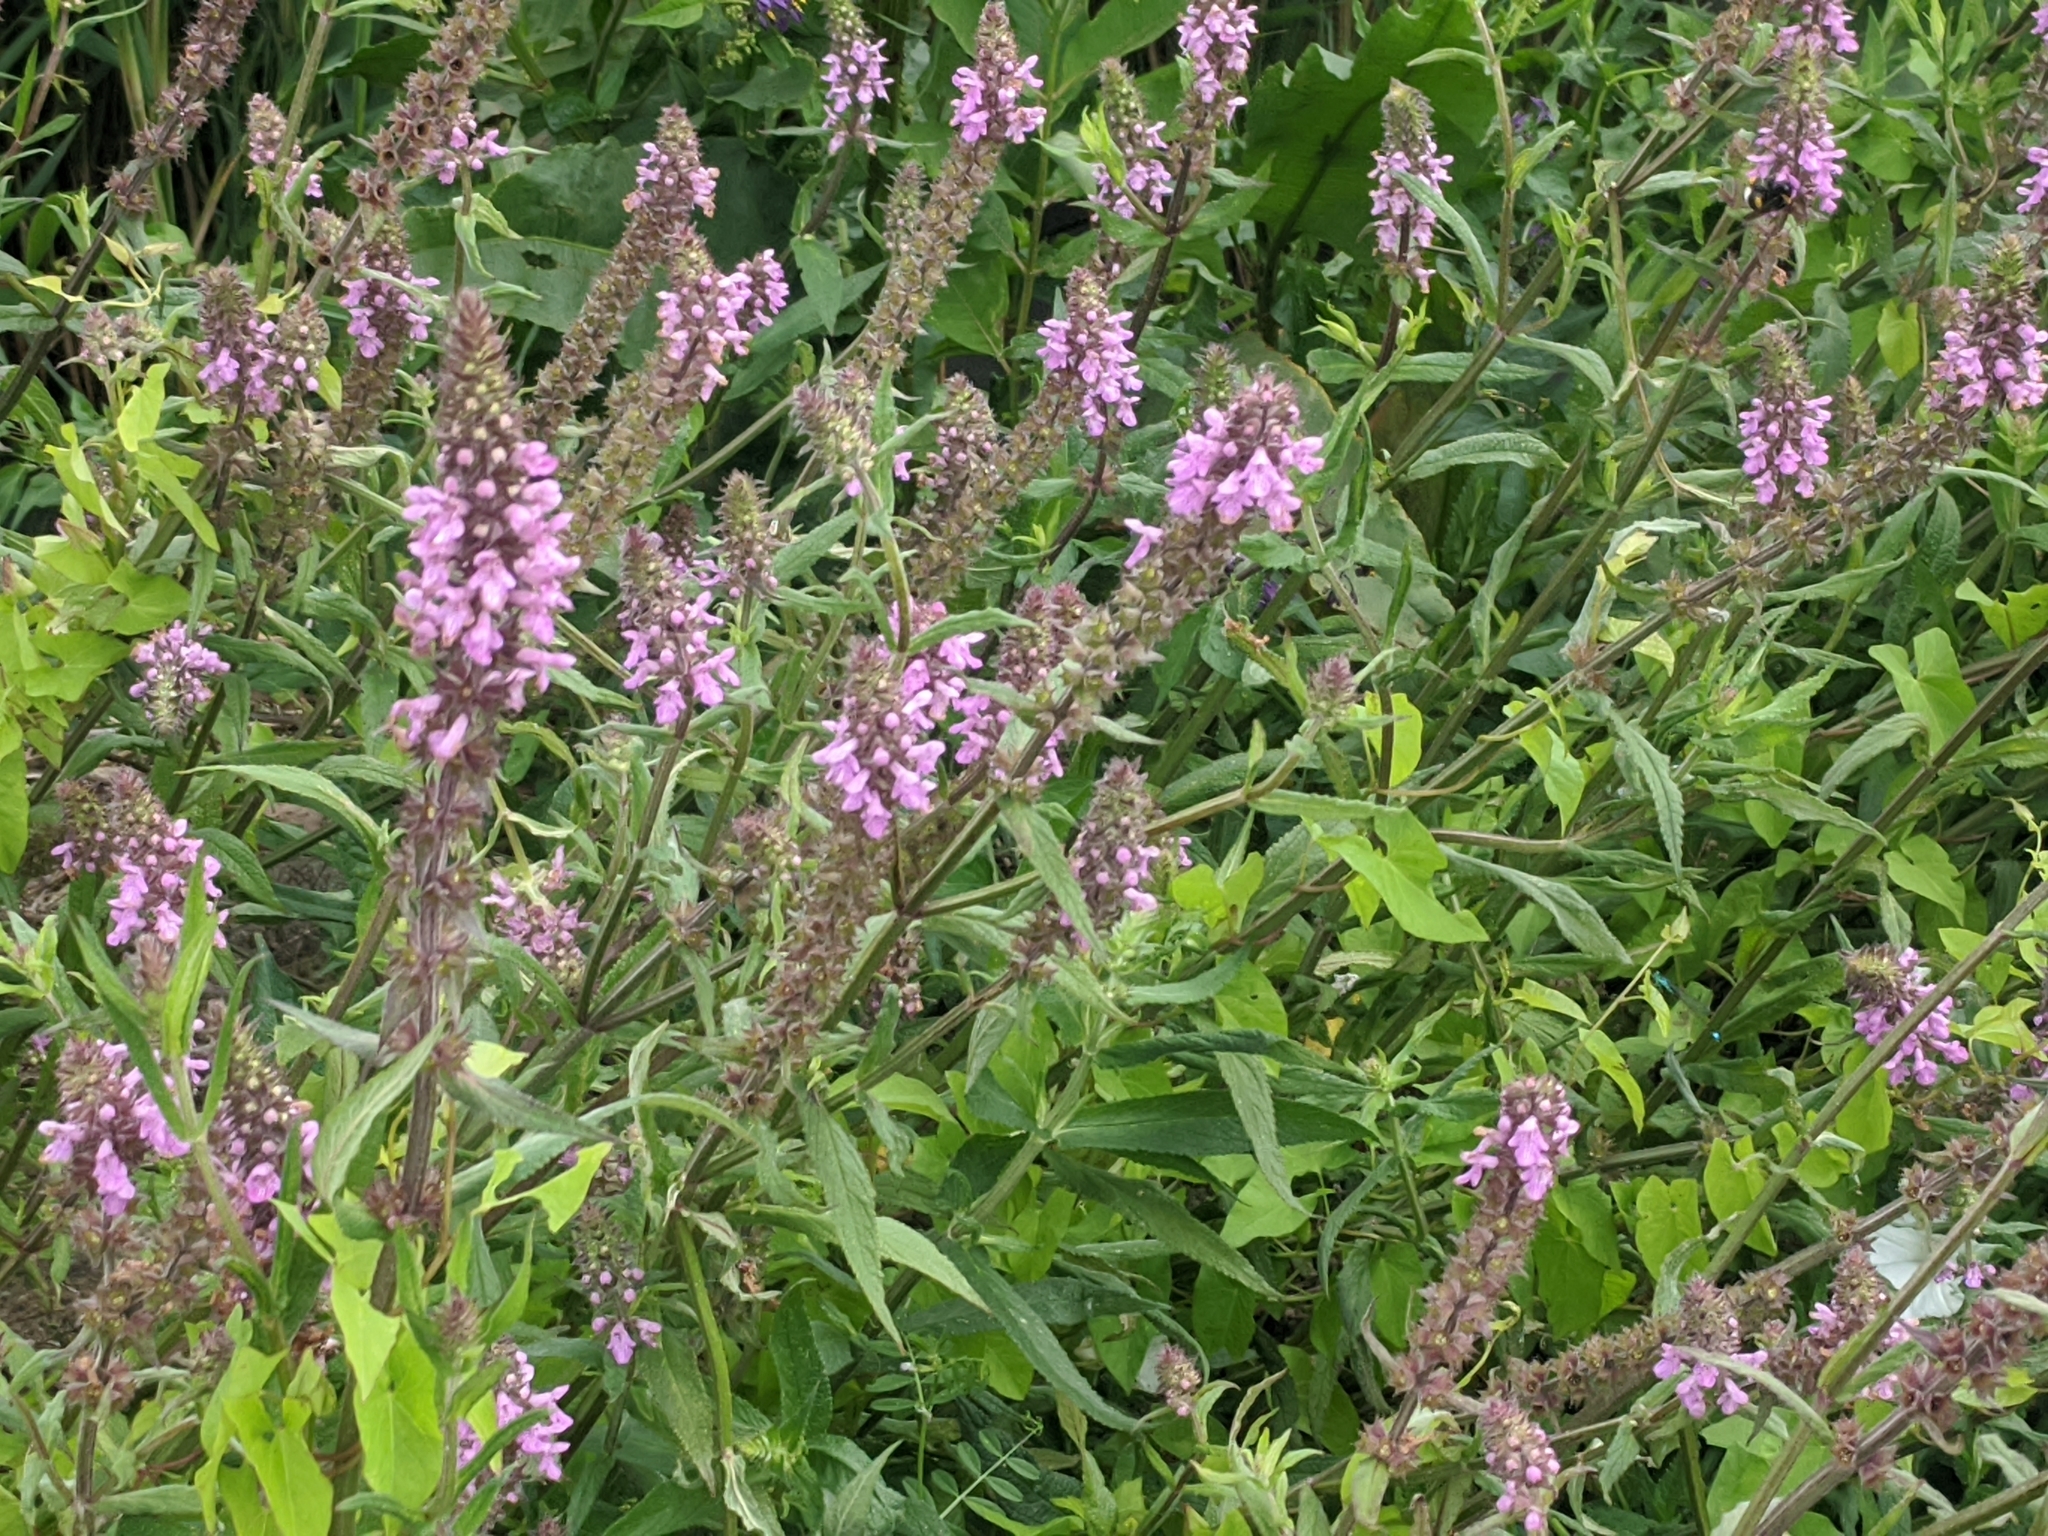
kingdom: Plantae
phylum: Tracheophyta
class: Magnoliopsida
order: Lamiales
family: Lamiaceae
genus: Stachys
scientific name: Stachys palustris
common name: Marsh woundwort
